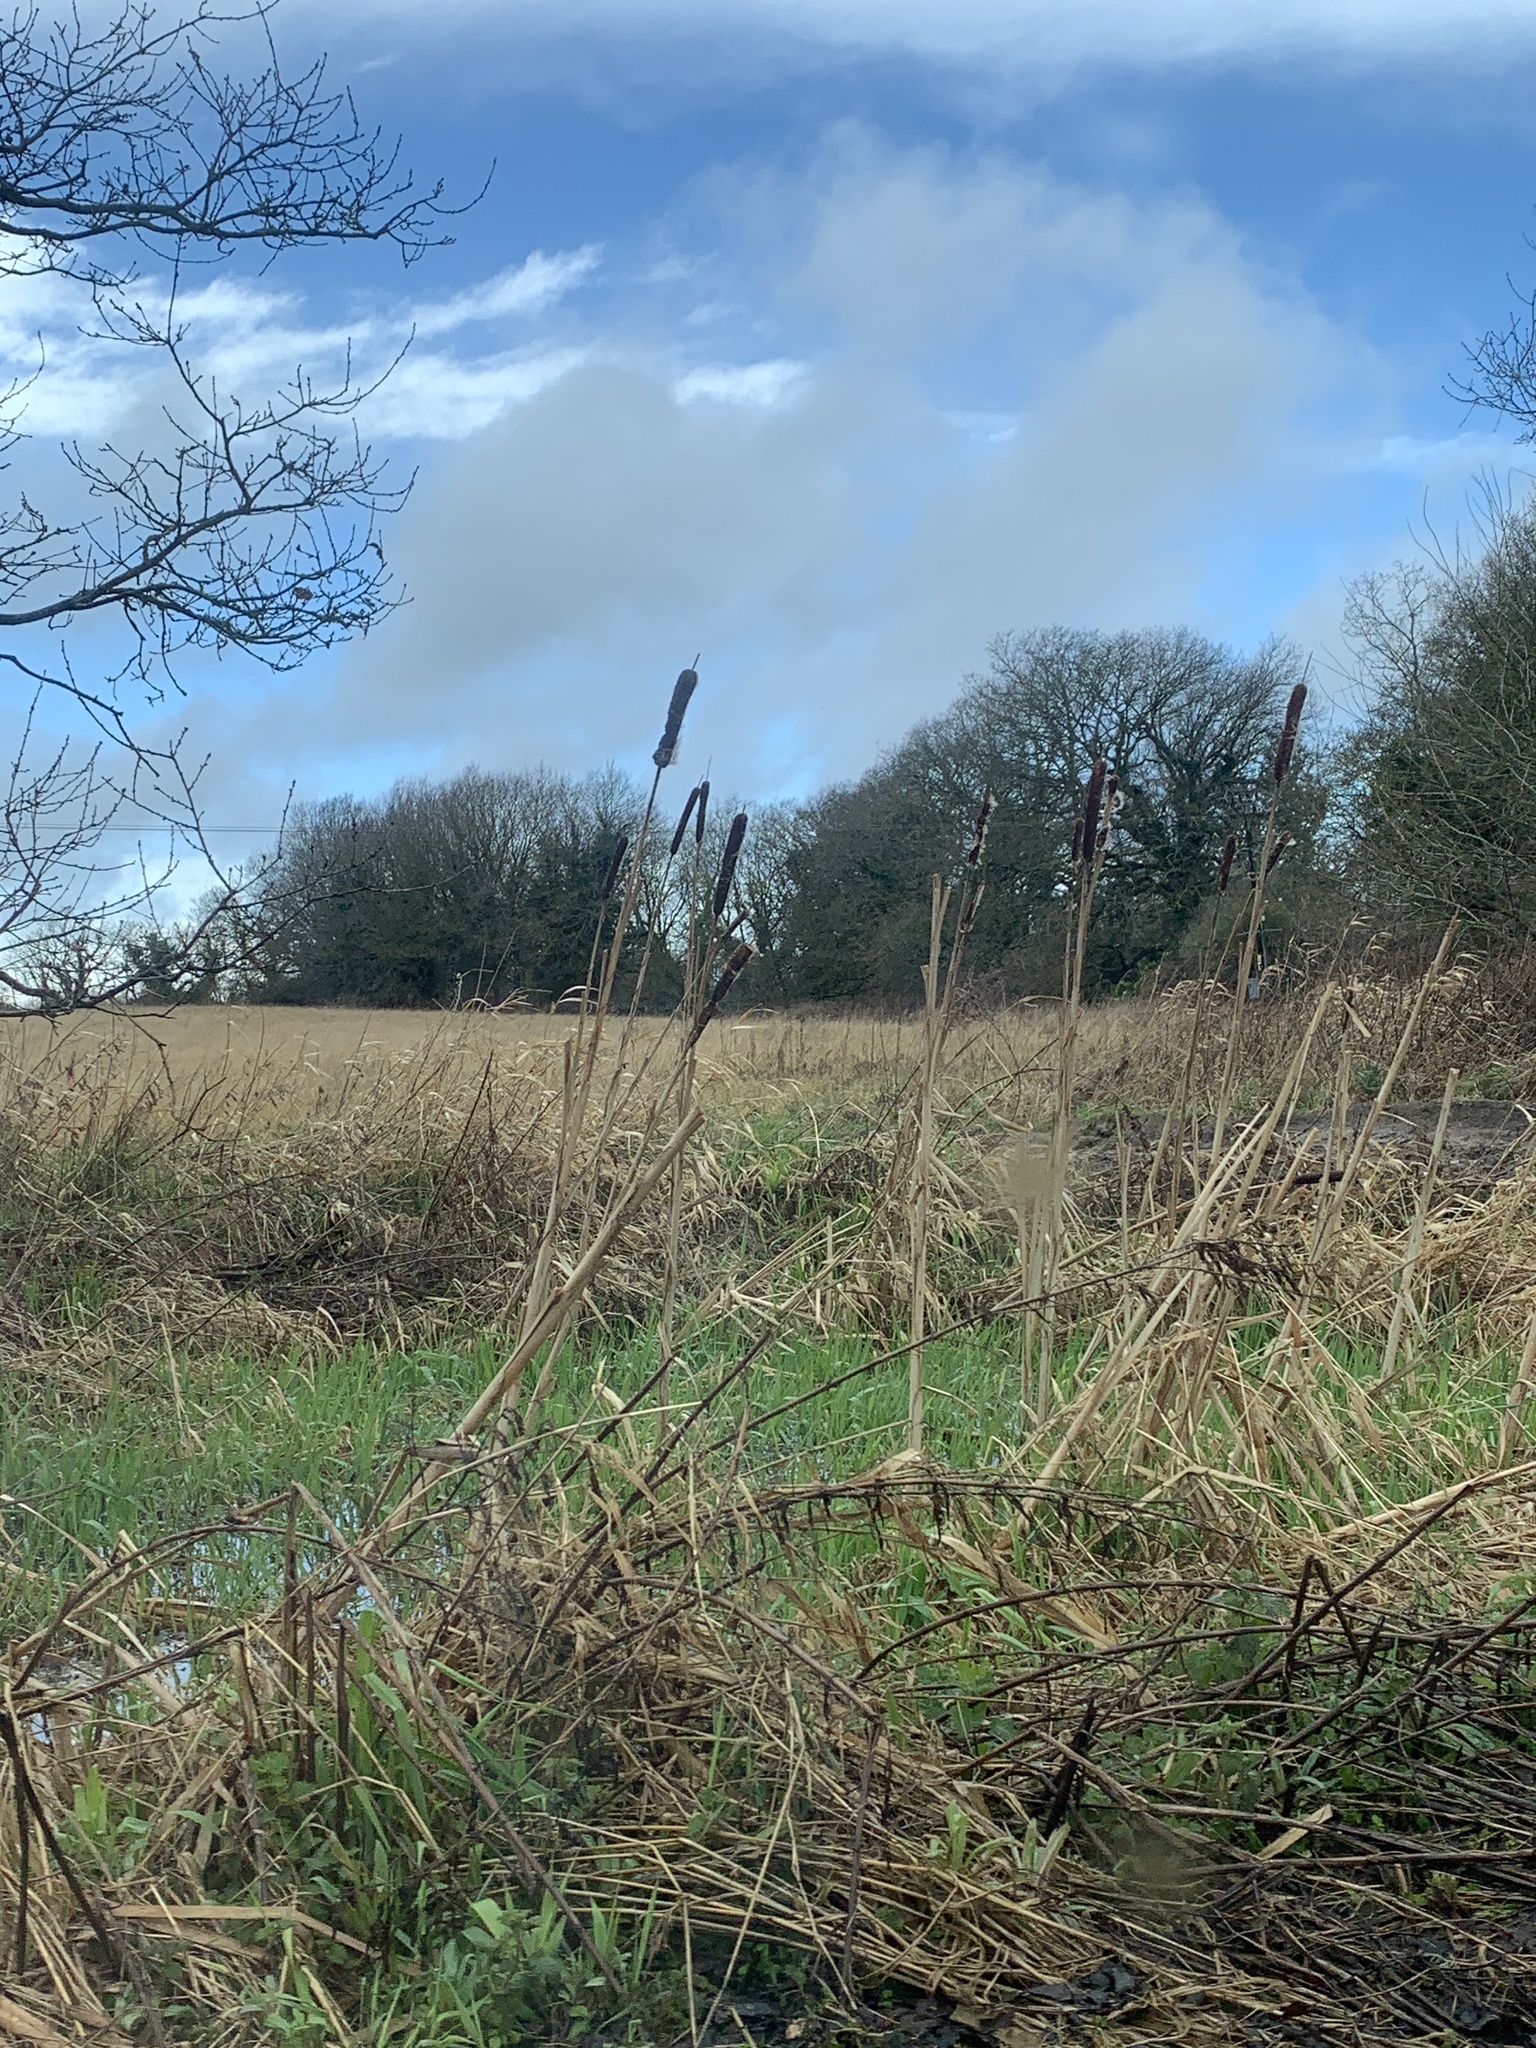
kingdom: Plantae
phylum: Tracheophyta
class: Liliopsida
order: Poales
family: Typhaceae
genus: Typha
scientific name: Typha latifolia
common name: Broadleaf cattail
